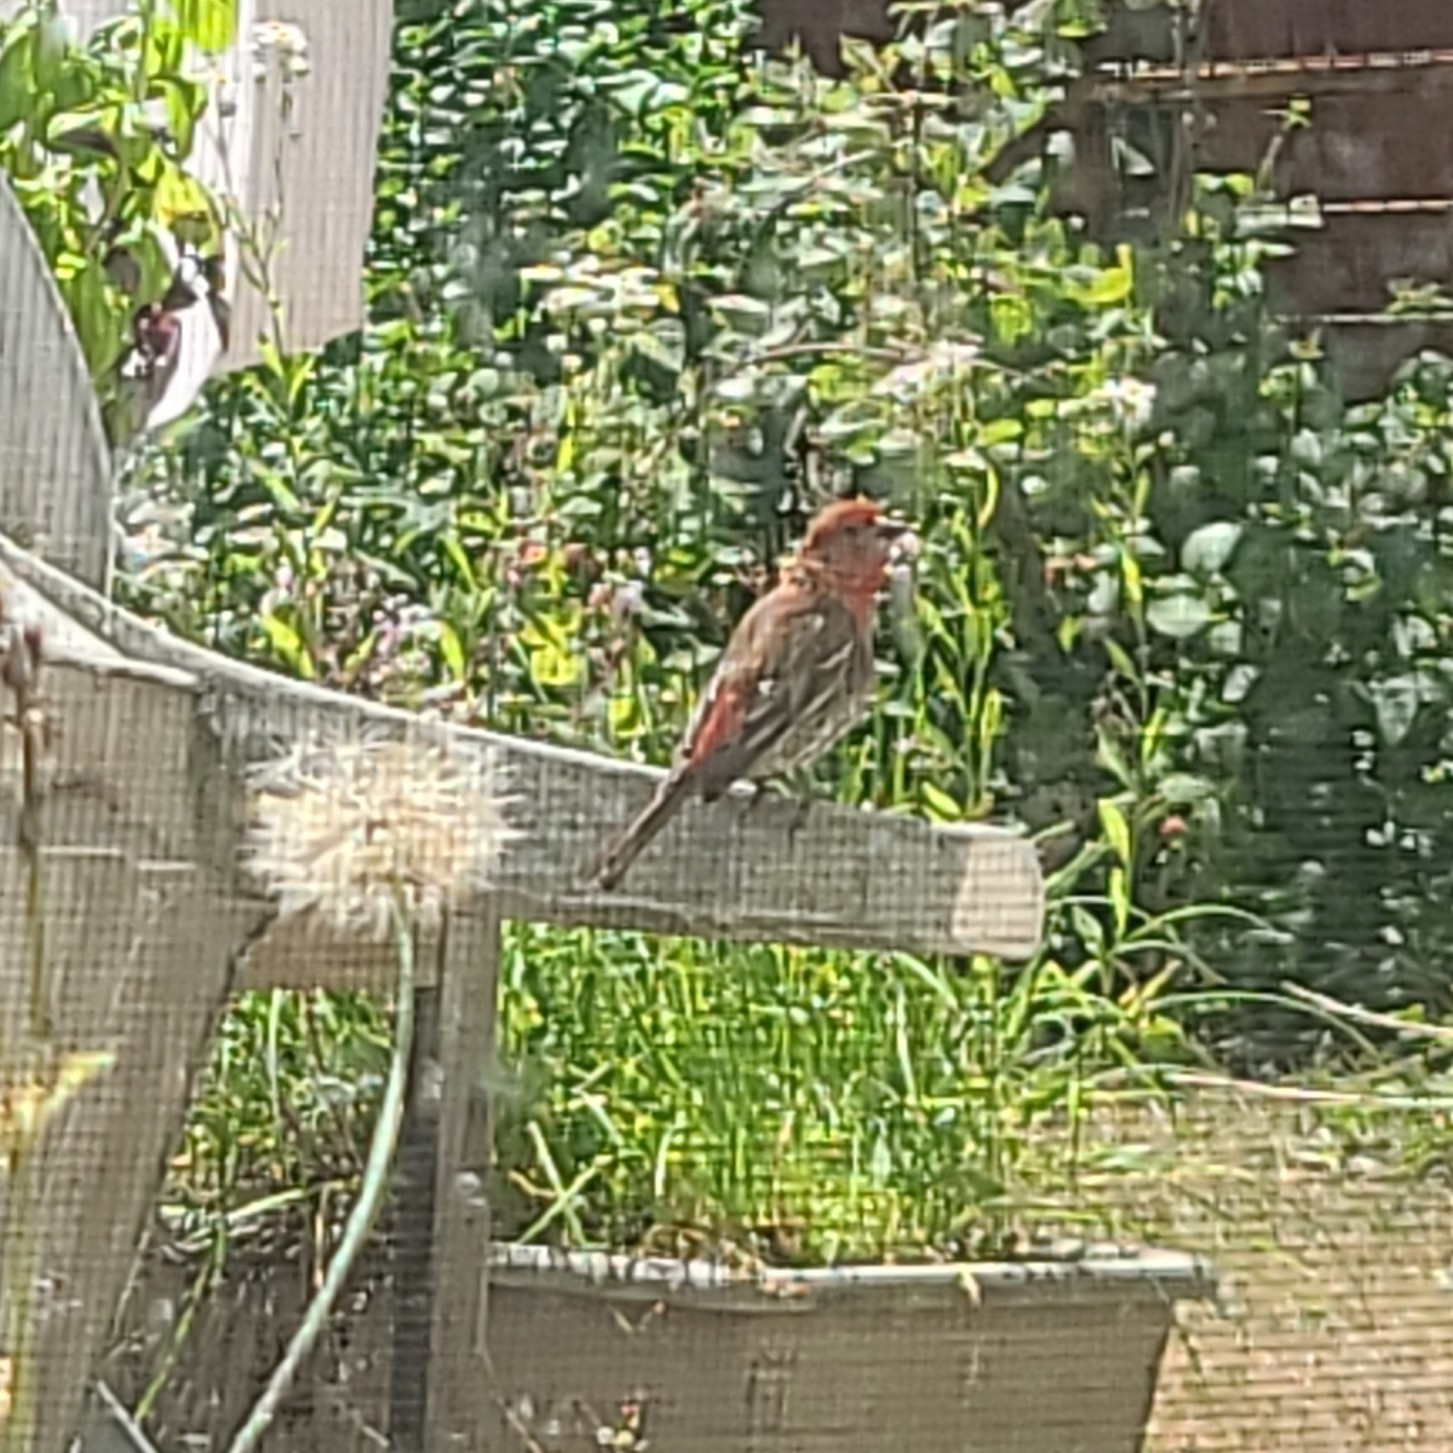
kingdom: Animalia
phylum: Chordata
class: Aves
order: Passeriformes
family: Fringillidae
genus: Haemorhous
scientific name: Haemorhous mexicanus
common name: House finch
